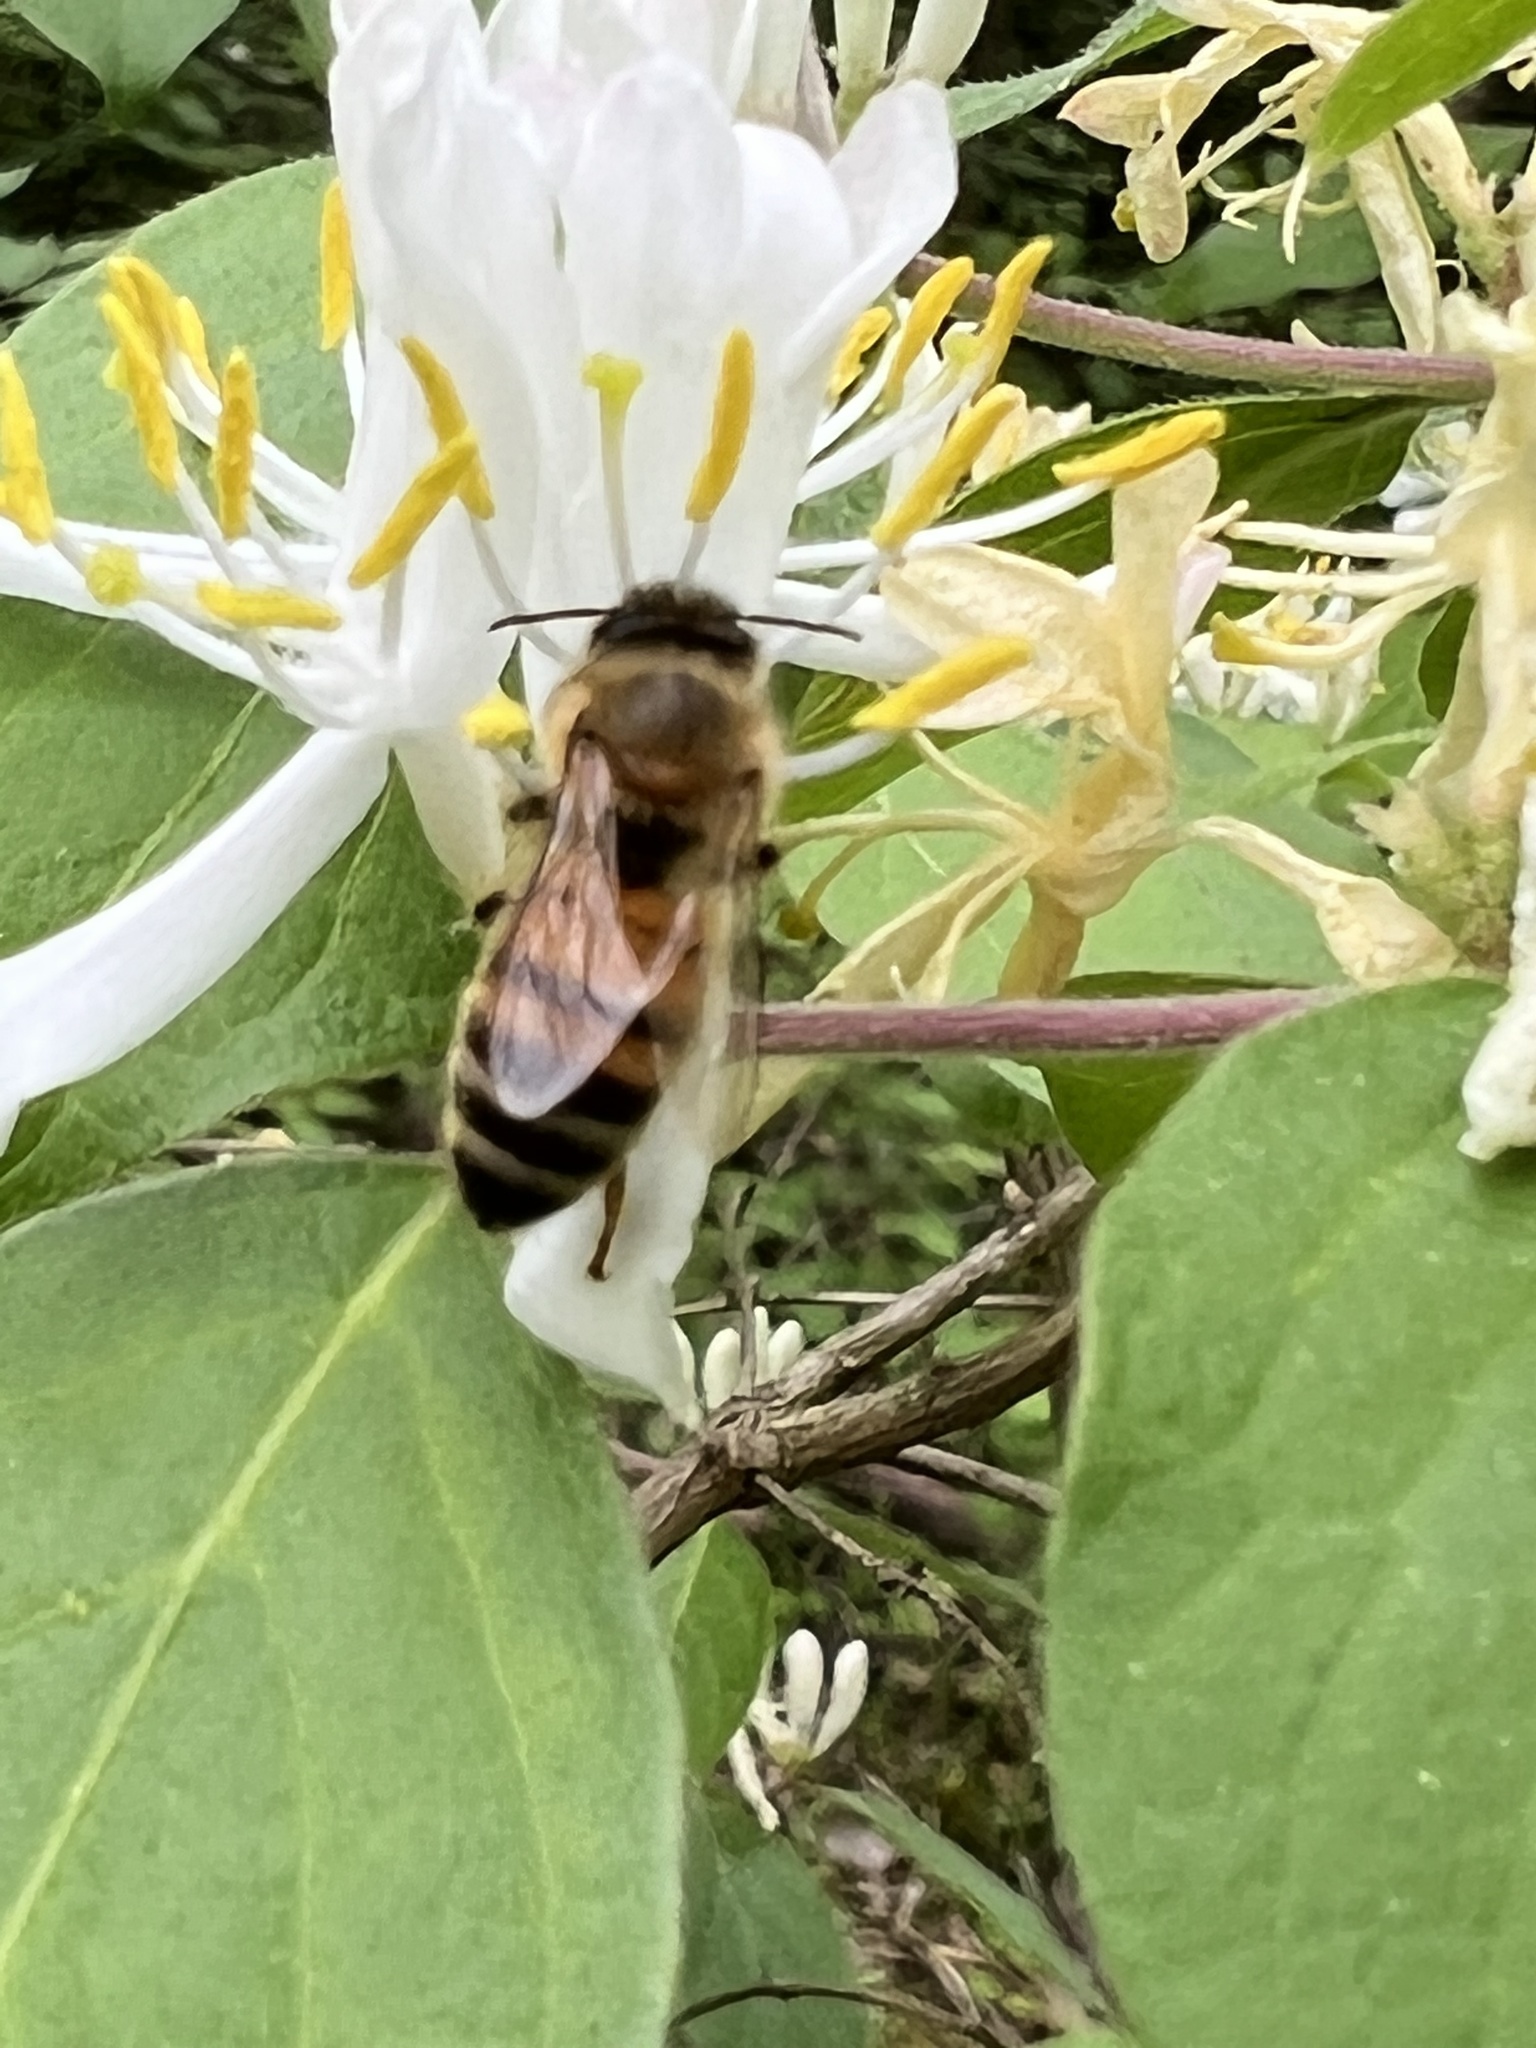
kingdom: Animalia
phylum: Arthropoda
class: Insecta
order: Hymenoptera
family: Apidae
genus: Apis
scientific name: Apis mellifera
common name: Honey bee
